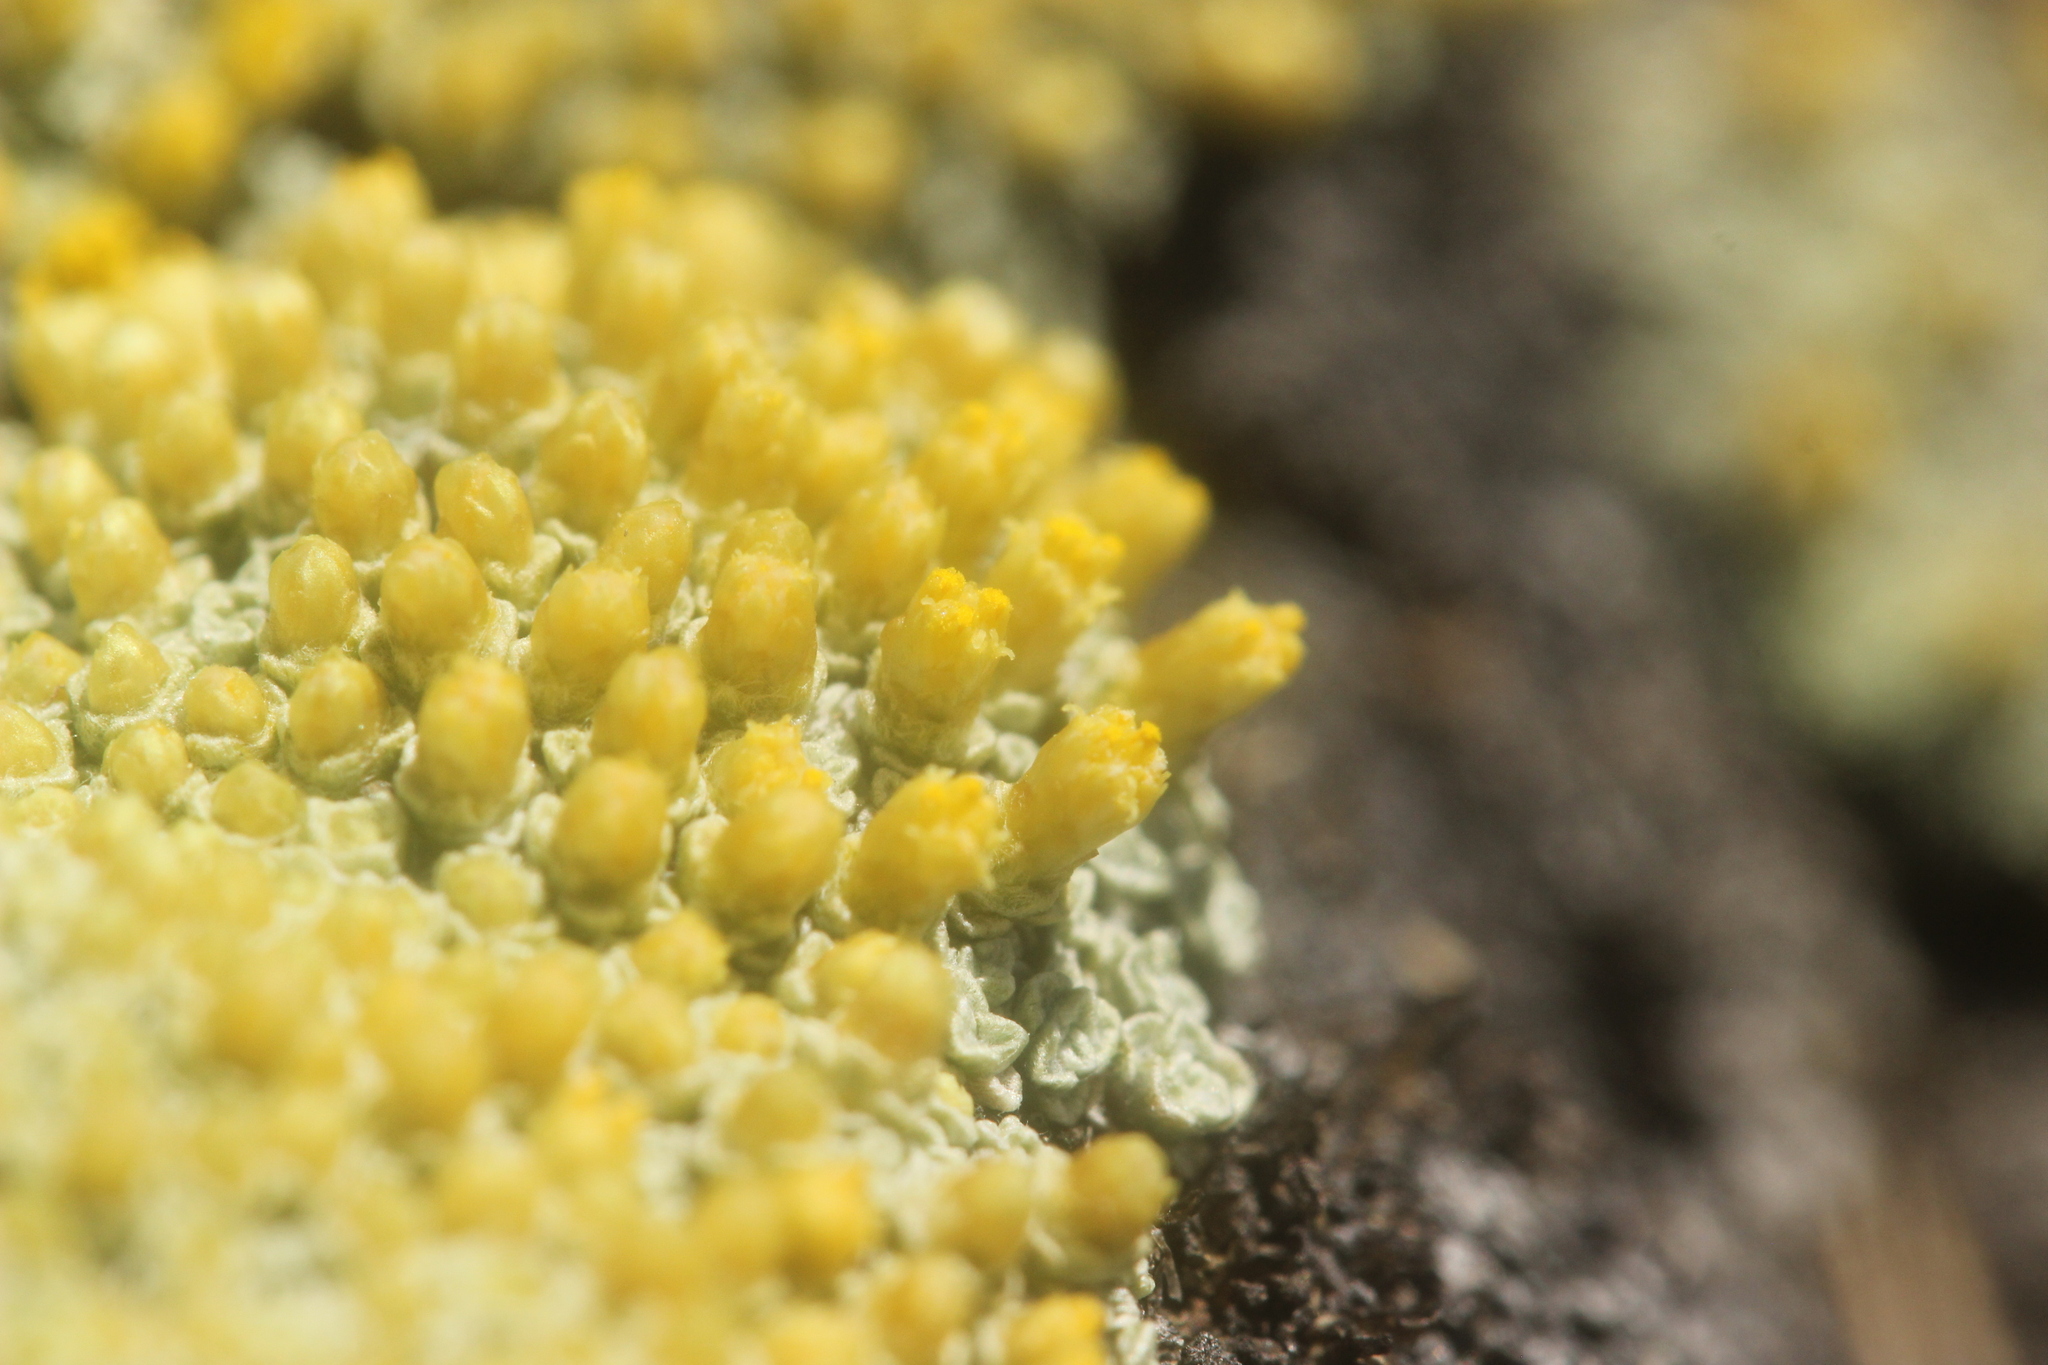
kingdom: Plantae
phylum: Tracheophyta
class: Magnoliopsida
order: Asterales
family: Asteraceae
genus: Raoulia
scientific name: Raoulia australis
